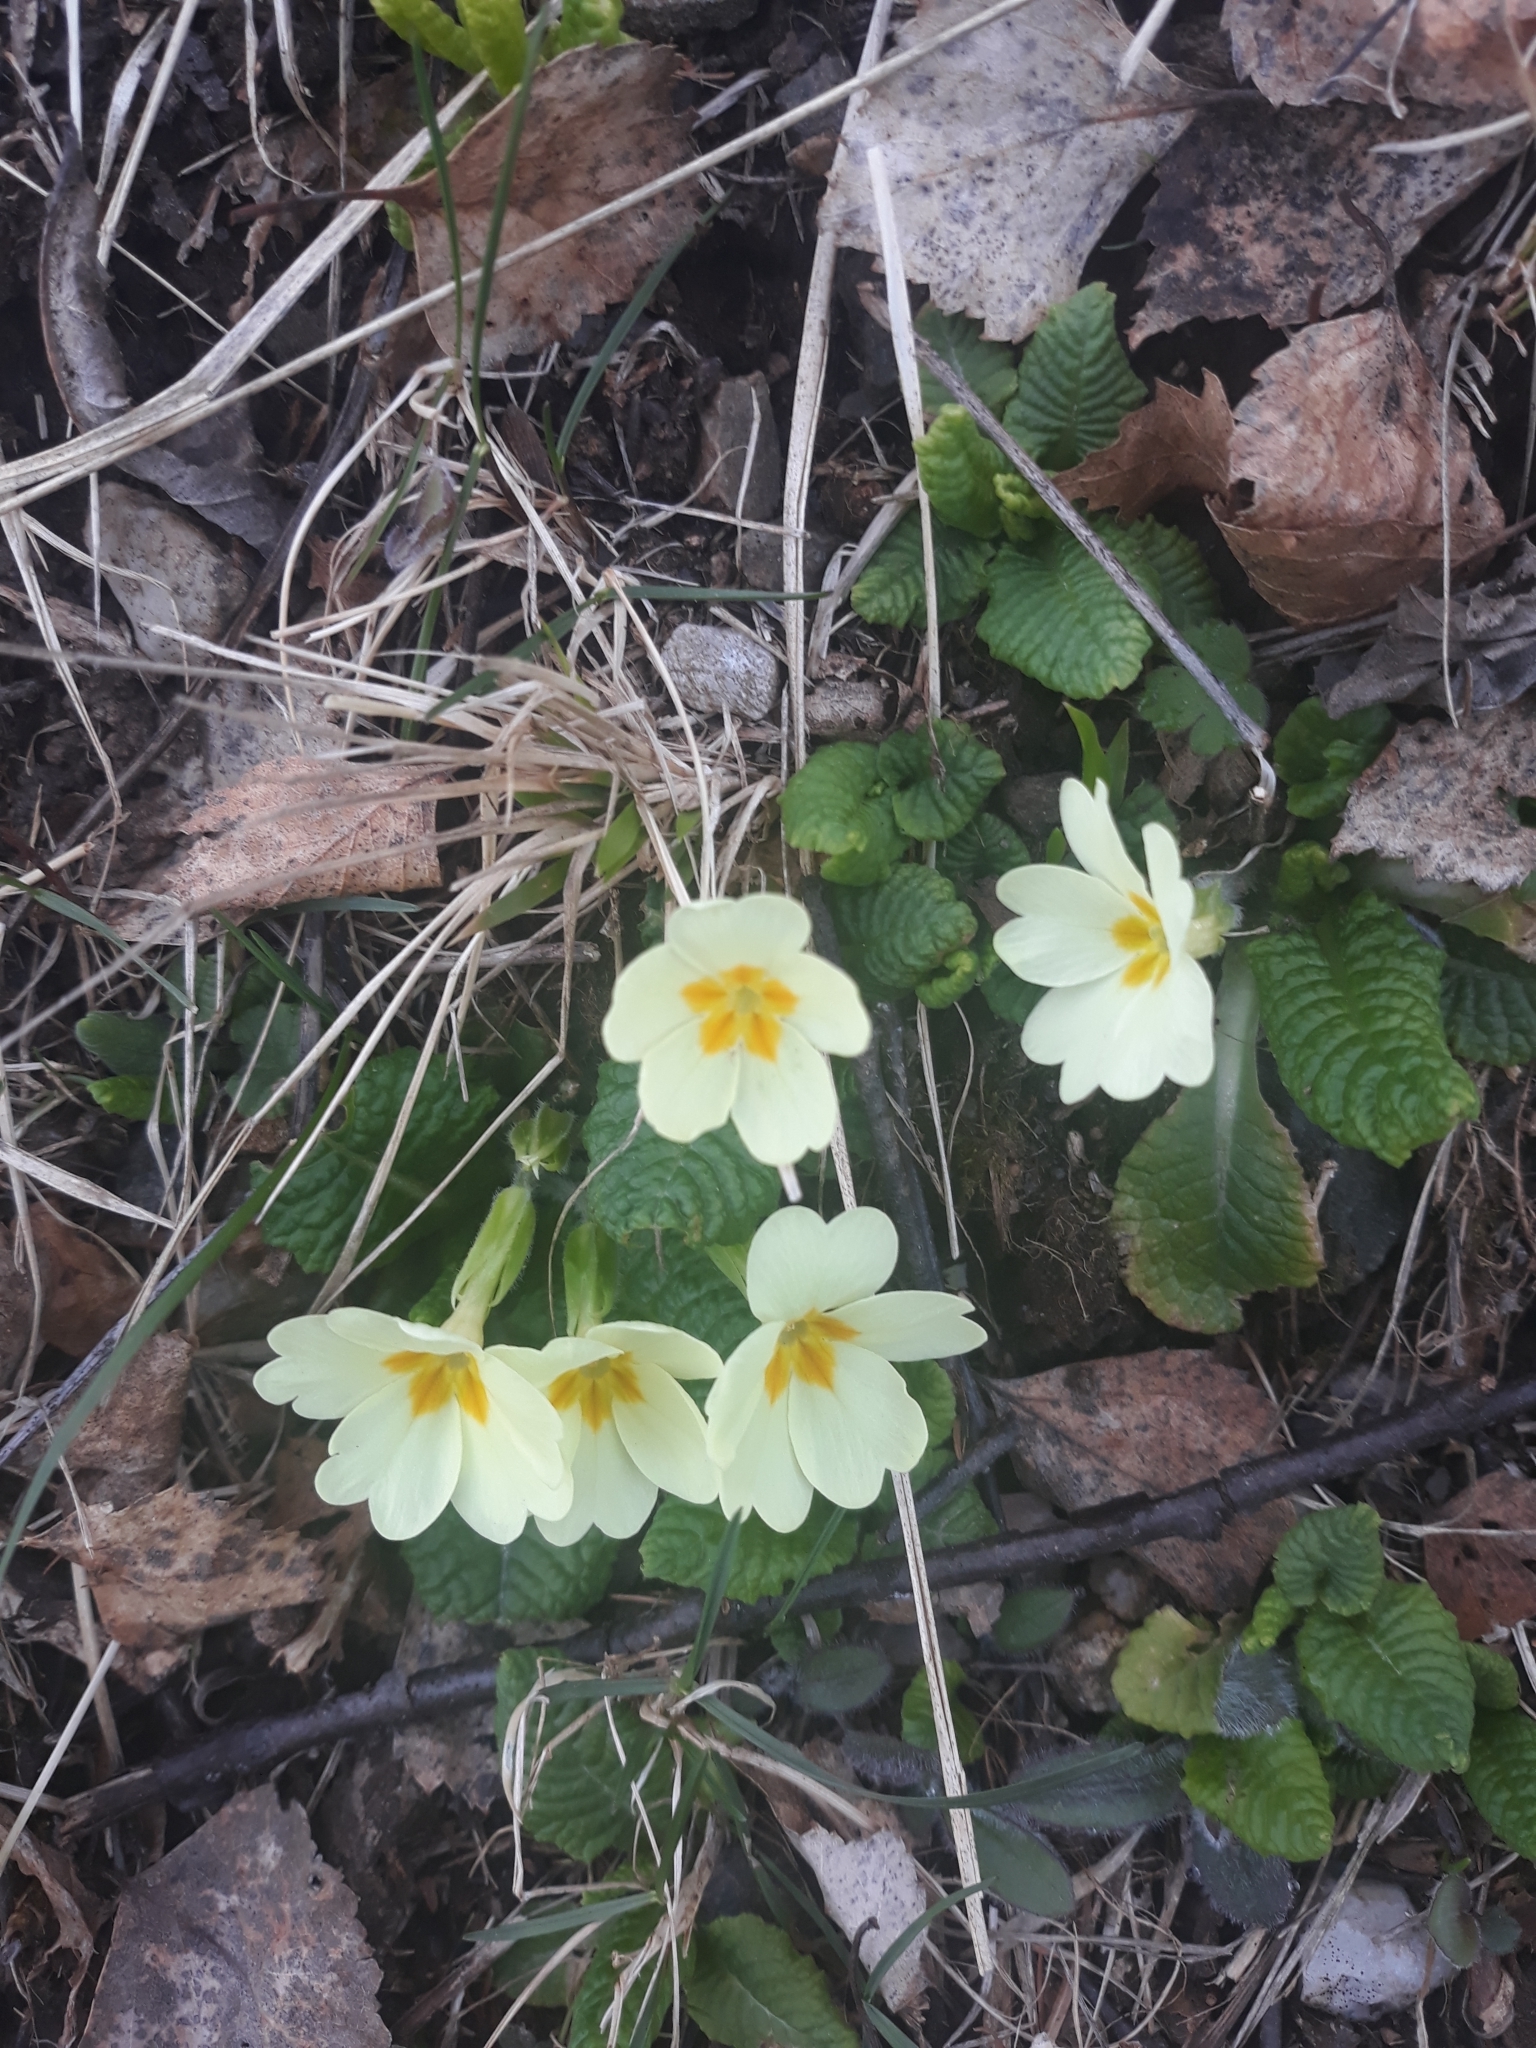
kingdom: Plantae
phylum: Tracheophyta
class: Magnoliopsida
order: Ericales
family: Primulaceae
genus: Primula
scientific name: Primula vulgaris
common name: Primrose
